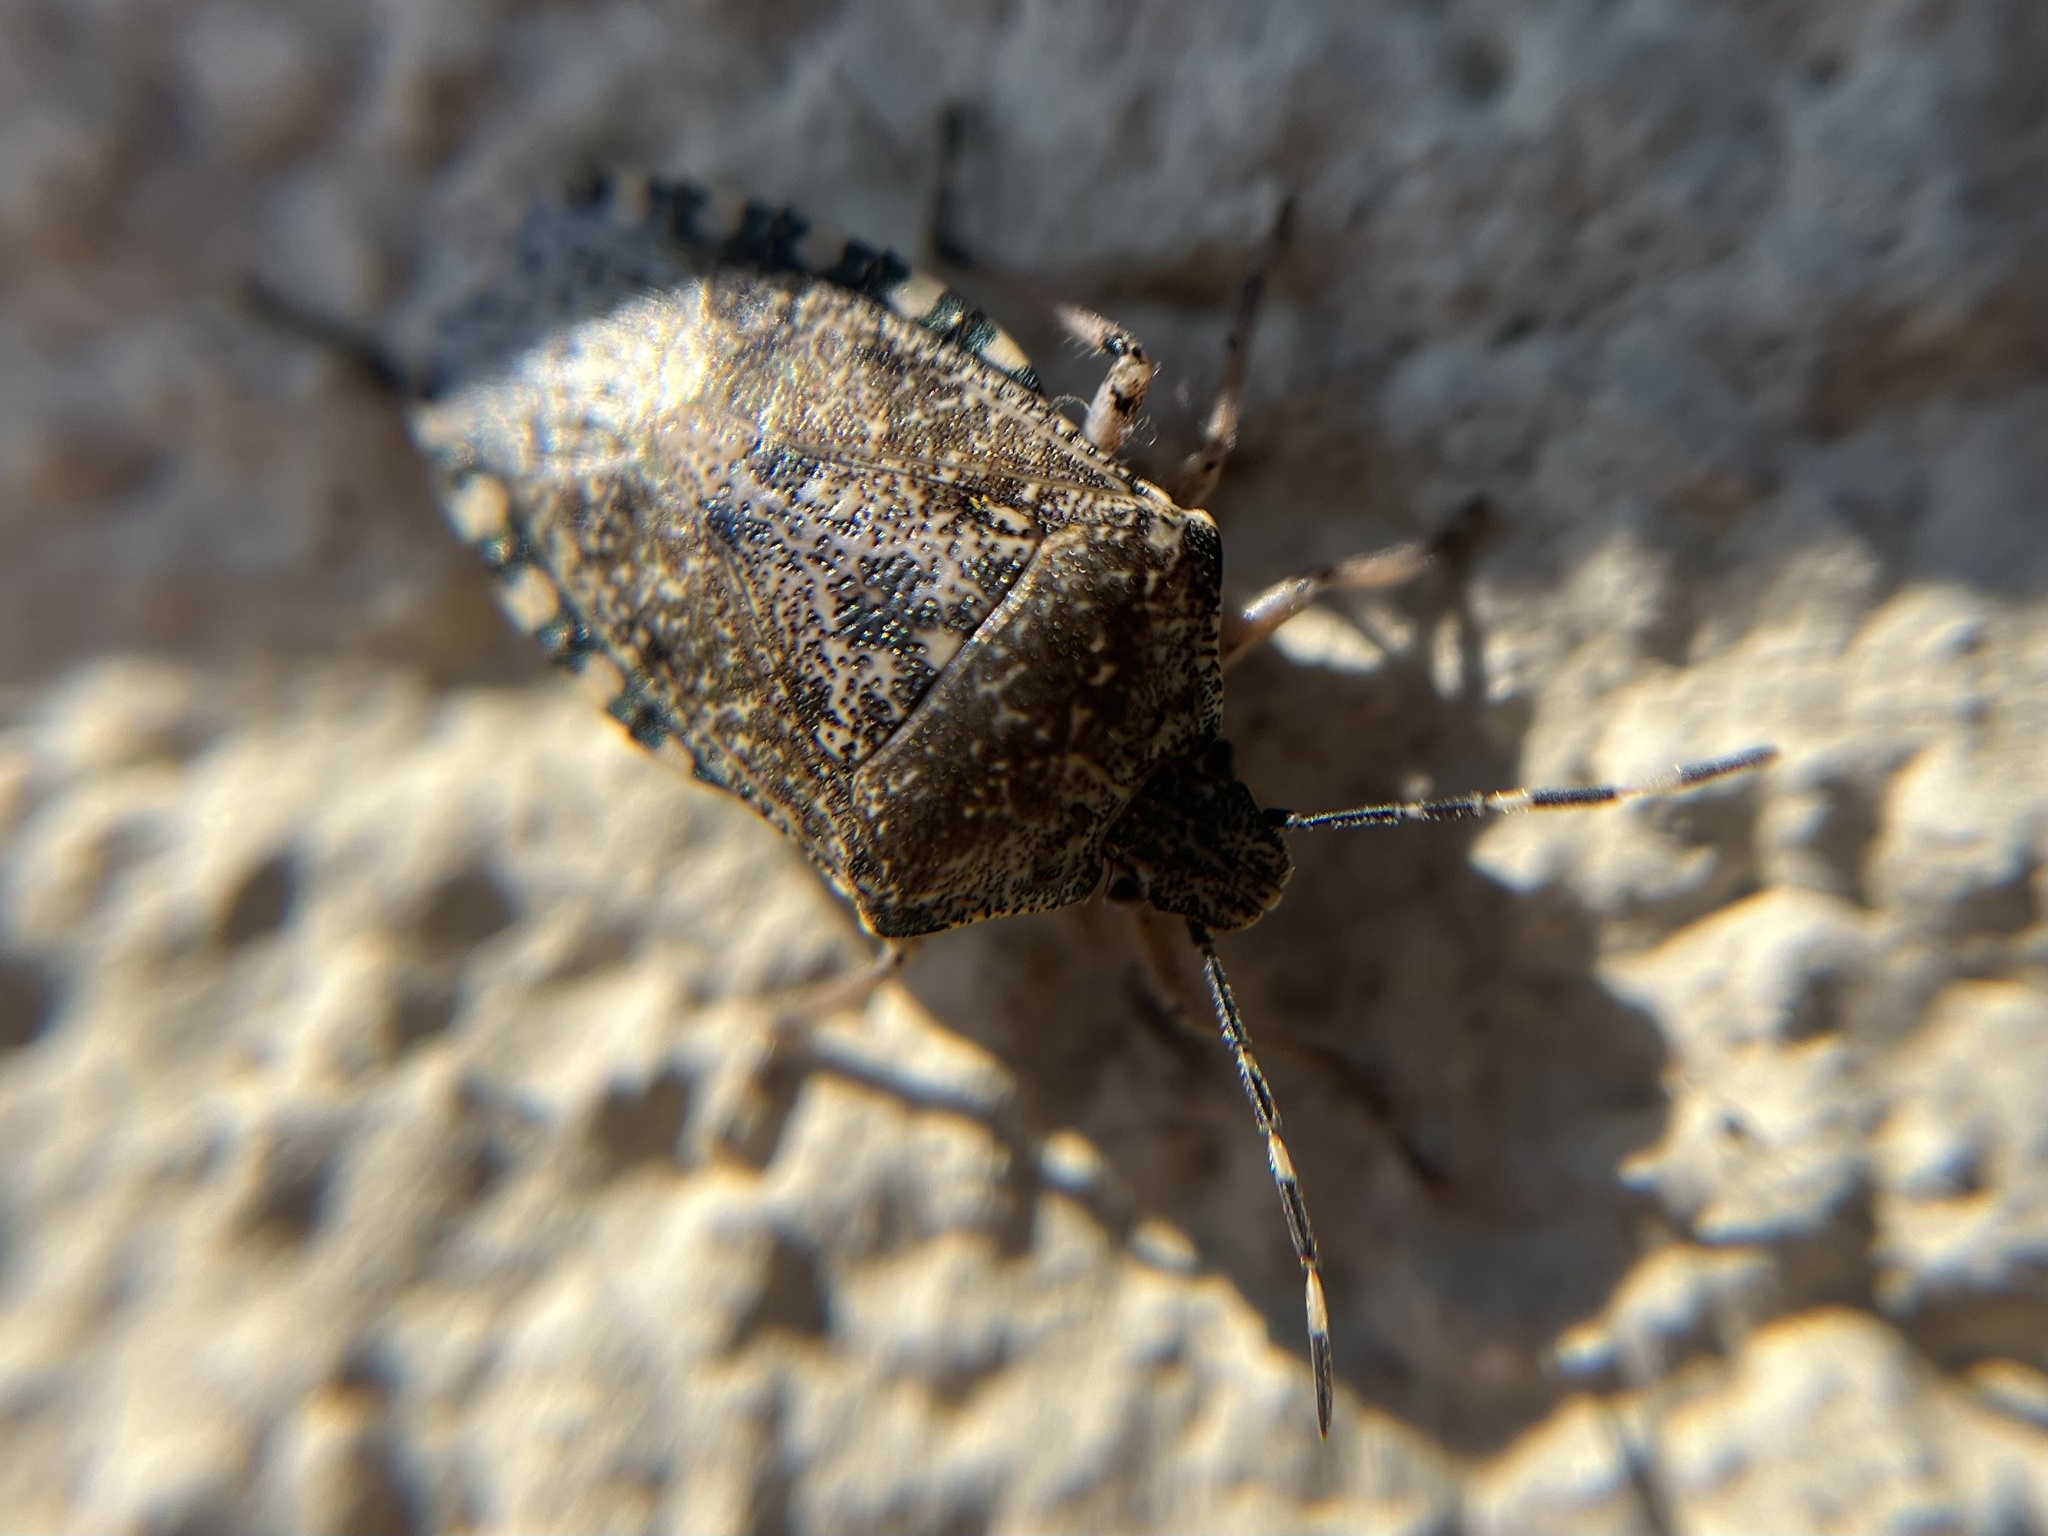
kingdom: Animalia
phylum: Arthropoda
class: Insecta
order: Hemiptera
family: Pentatomidae
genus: Rhaphigaster
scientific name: Rhaphigaster nebulosa
